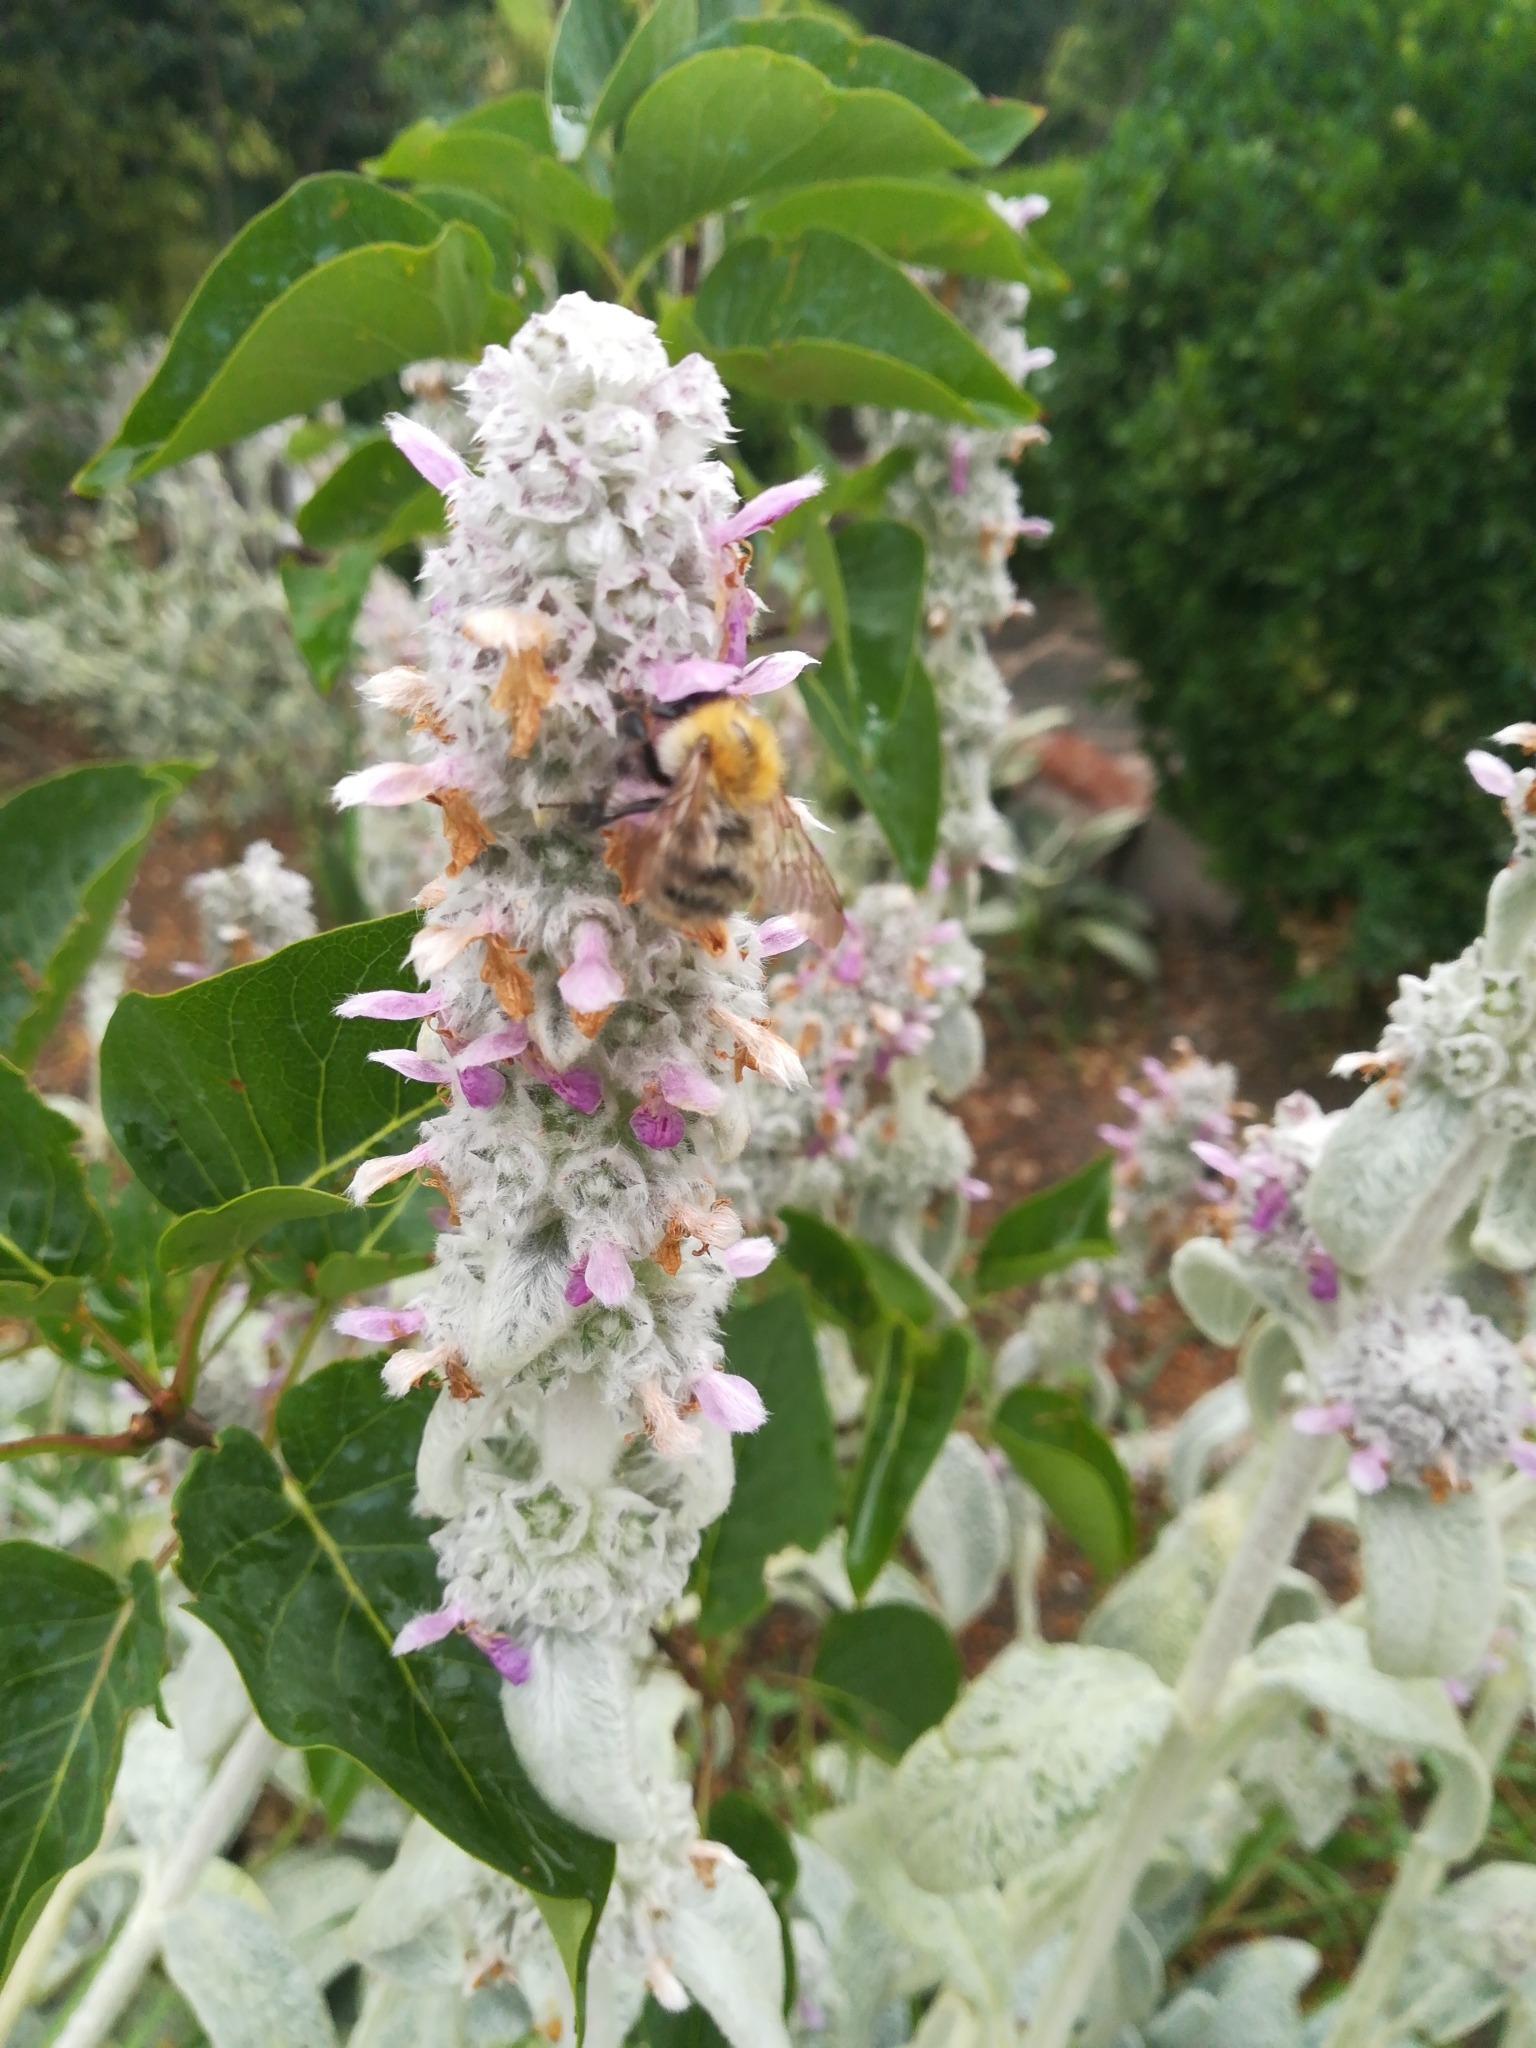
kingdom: Animalia
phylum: Arthropoda
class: Insecta
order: Hymenoptera
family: Apidae
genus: Bombus
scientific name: Bombus pascuorum
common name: Common carder bee
